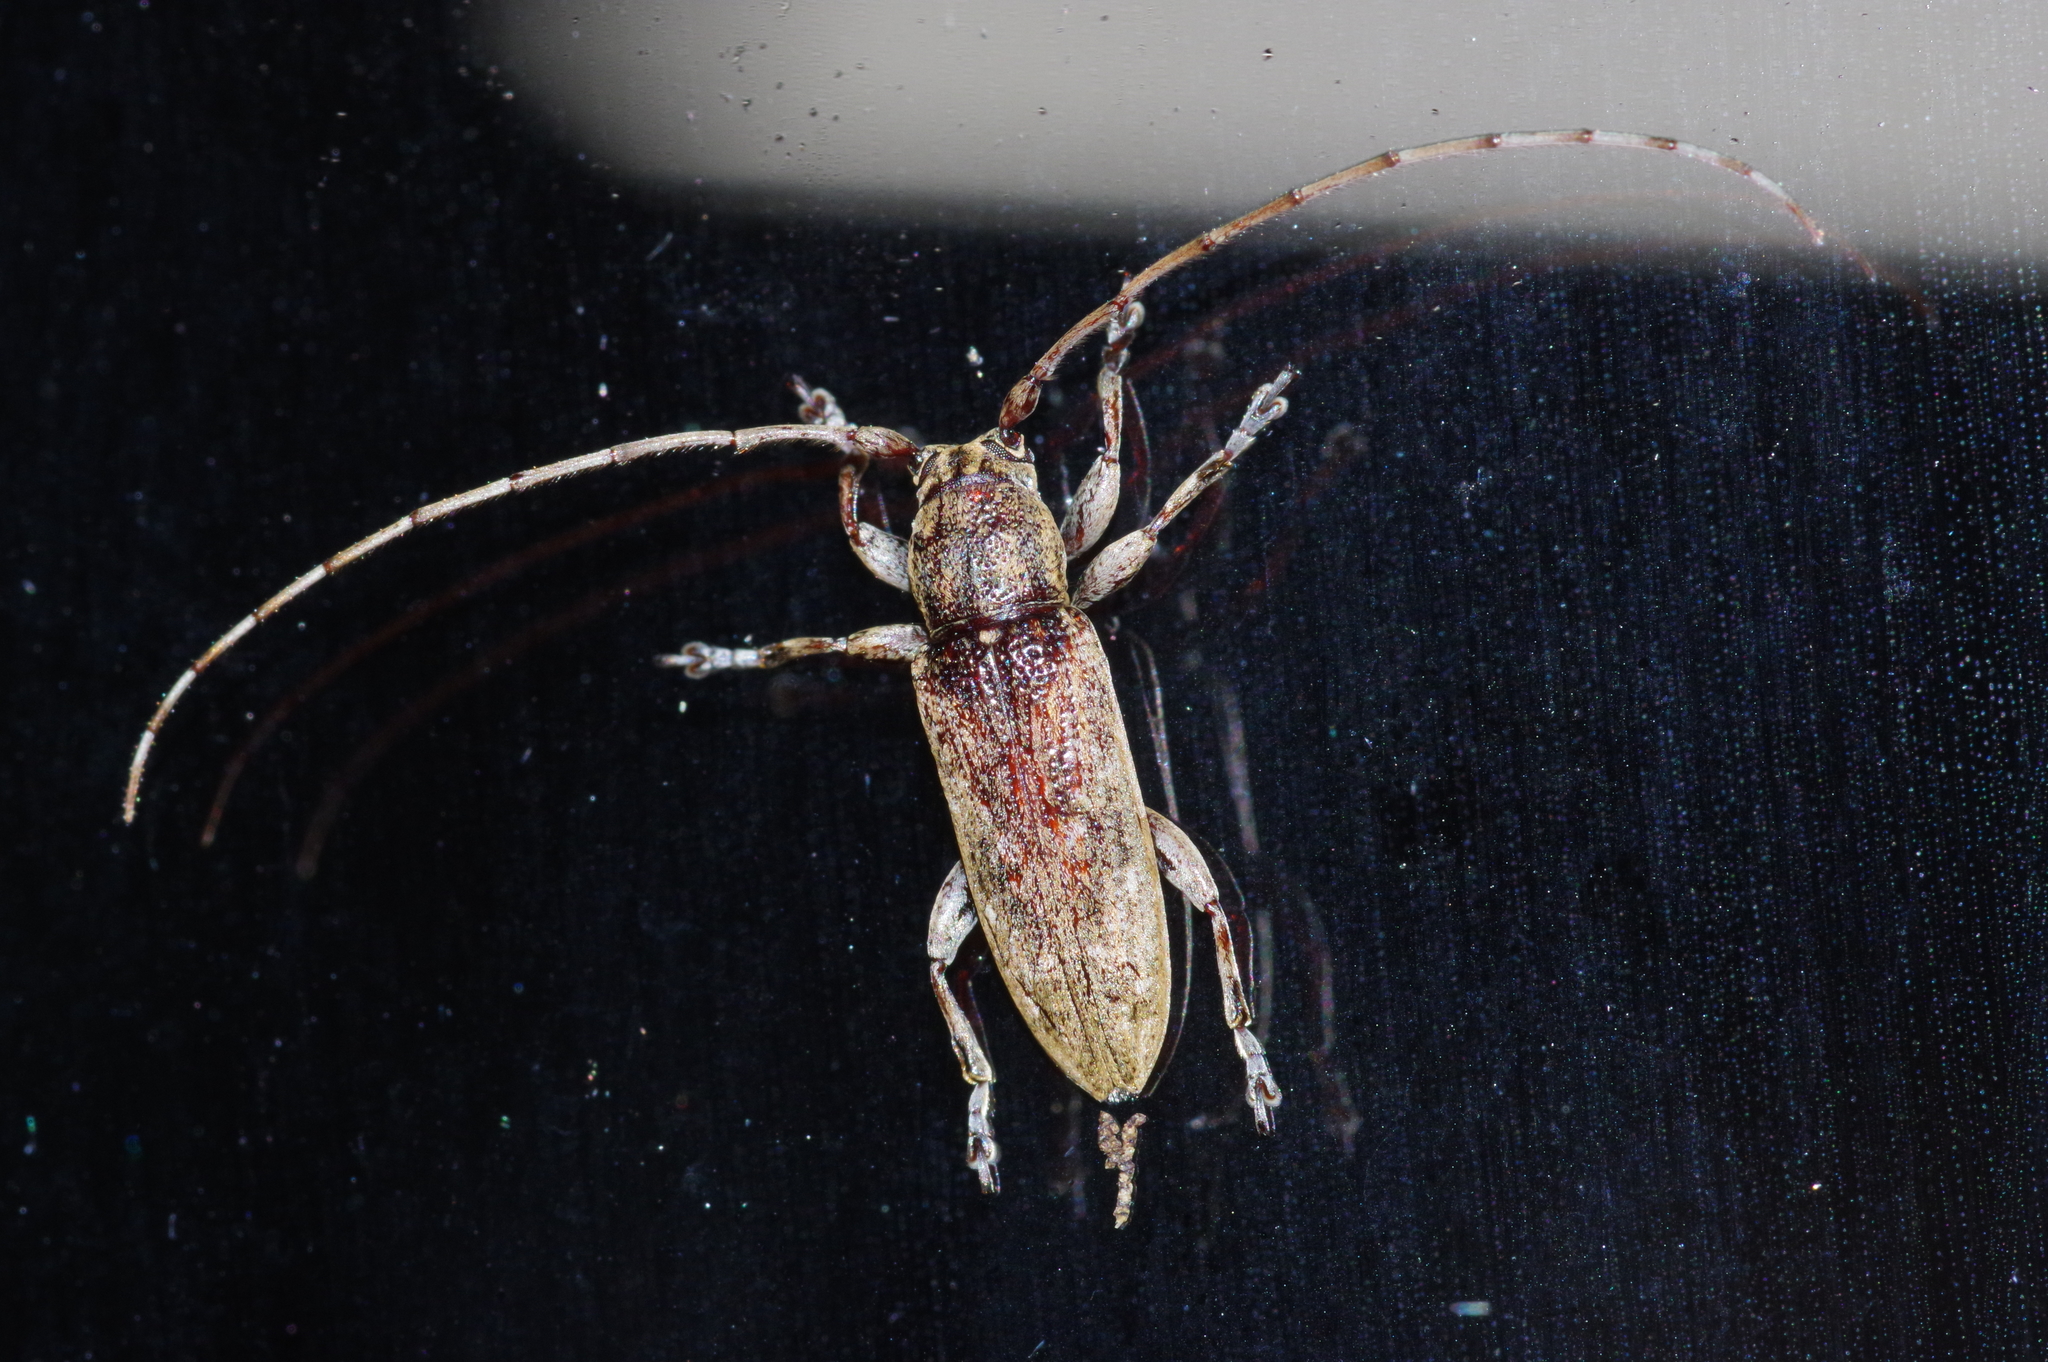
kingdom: Animalia
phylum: Arthropoda
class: Insecta
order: Coleoptera
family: Cerambycidae
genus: Mycerinopsis
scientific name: Mycerinopsis ordinata
